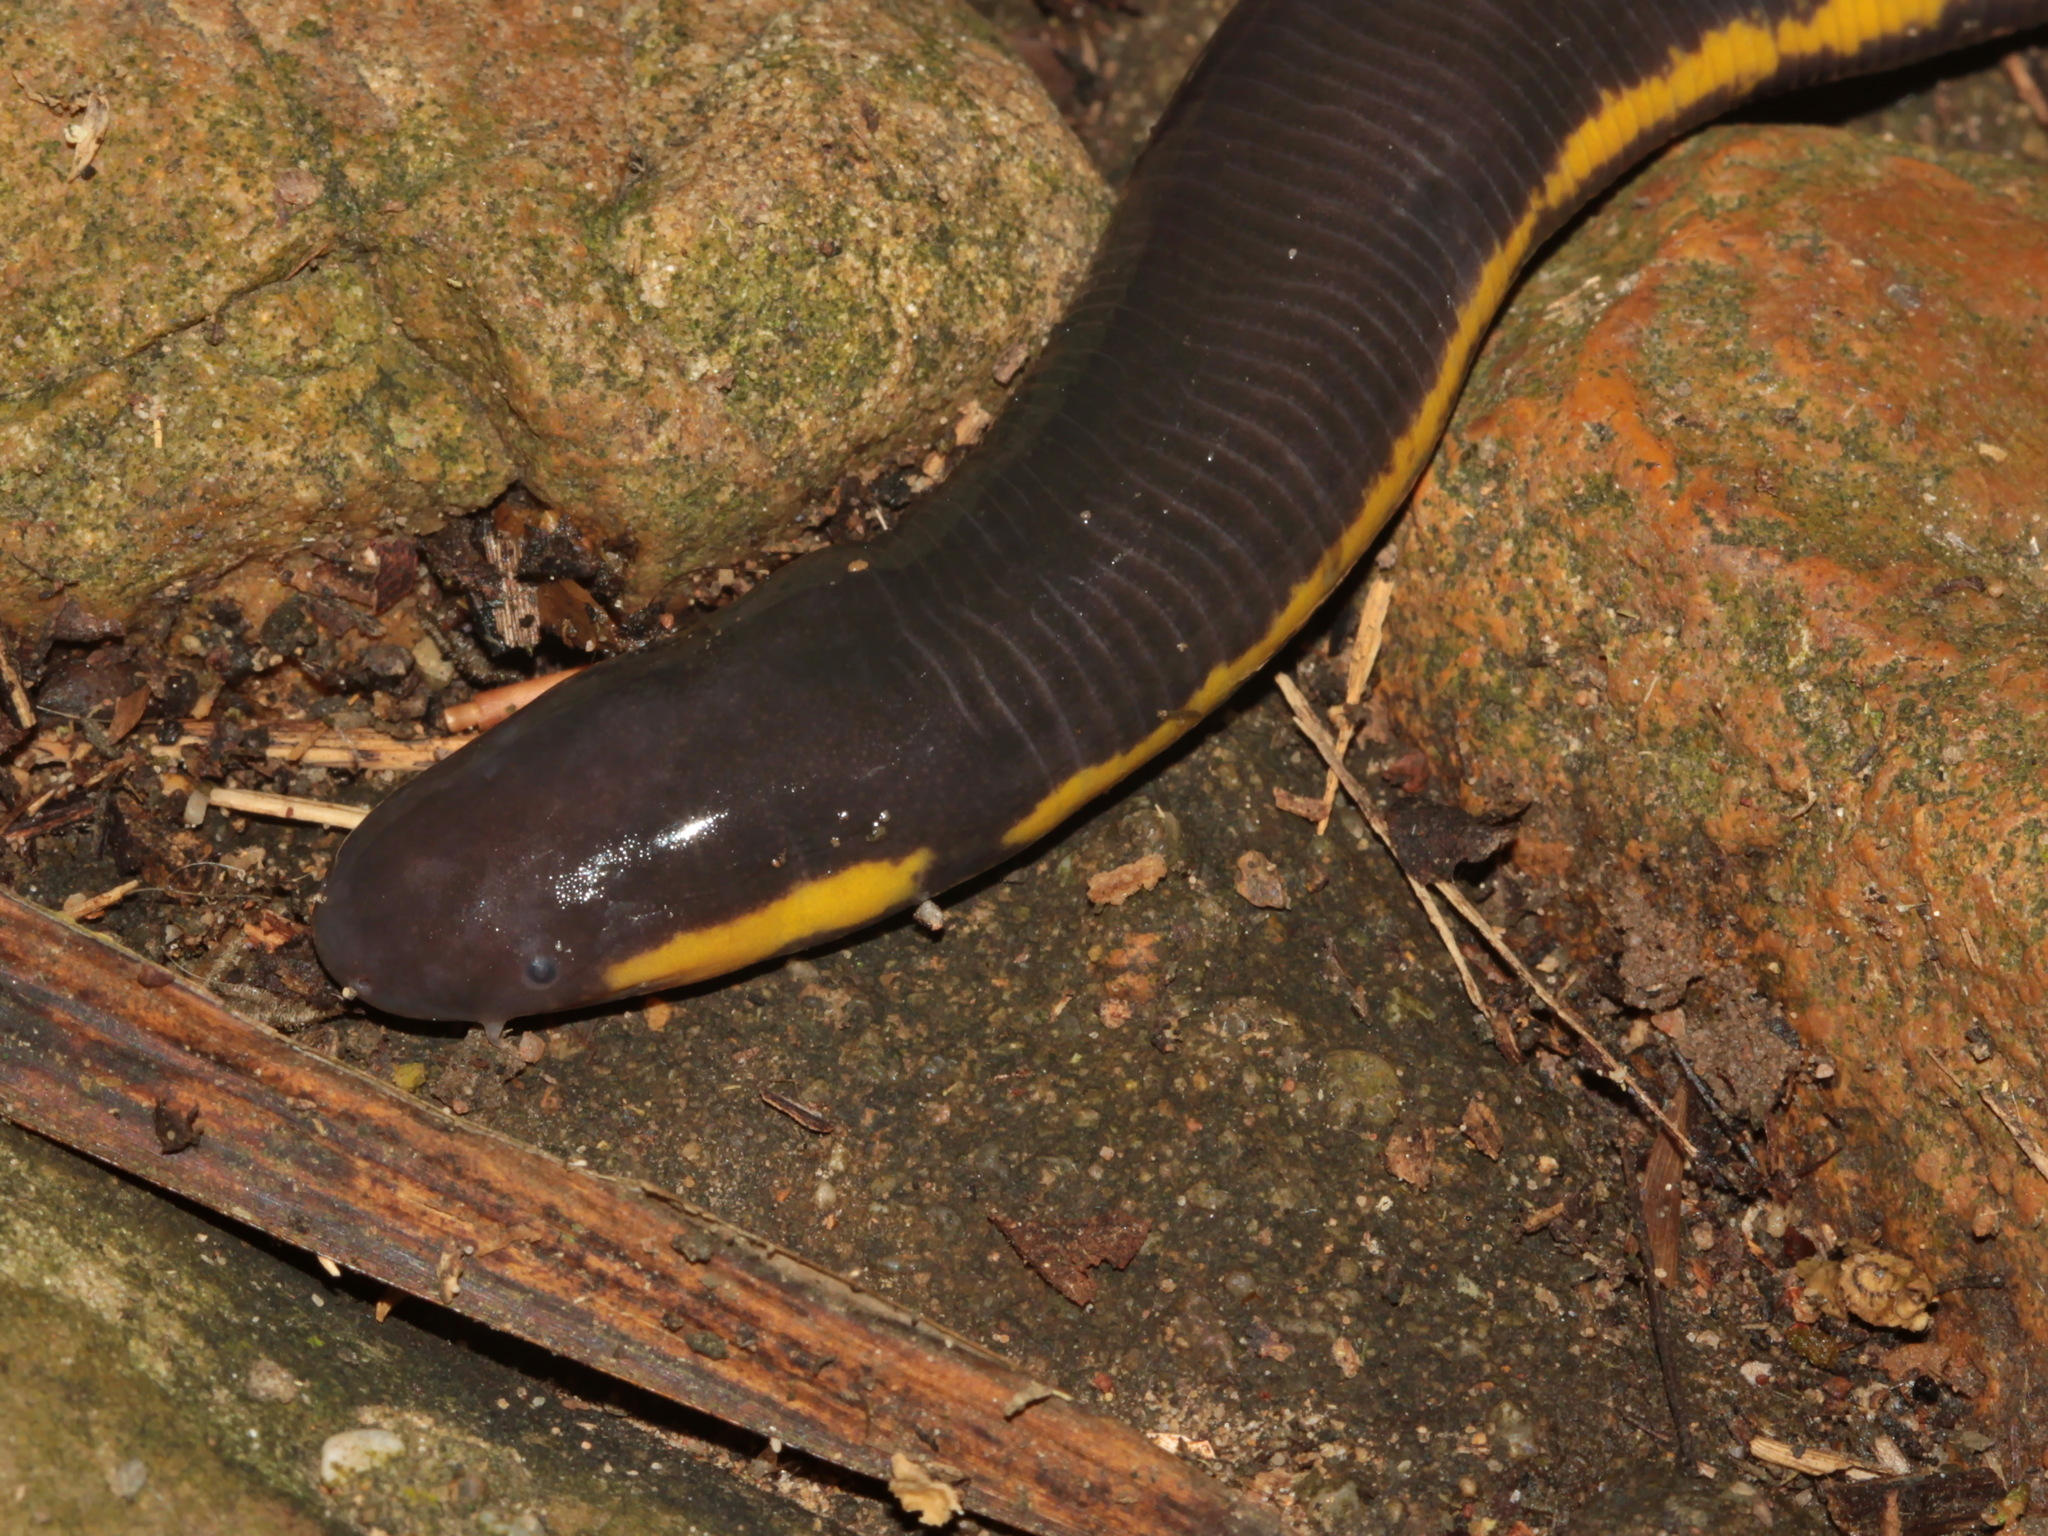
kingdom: Animalia
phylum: Chordata
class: Amphibia
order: Gymnophiona
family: Ichthyophiidae
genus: Ichthyophis
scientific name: Ichthyophis kohtaoensis
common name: Koa tao island caecilian
